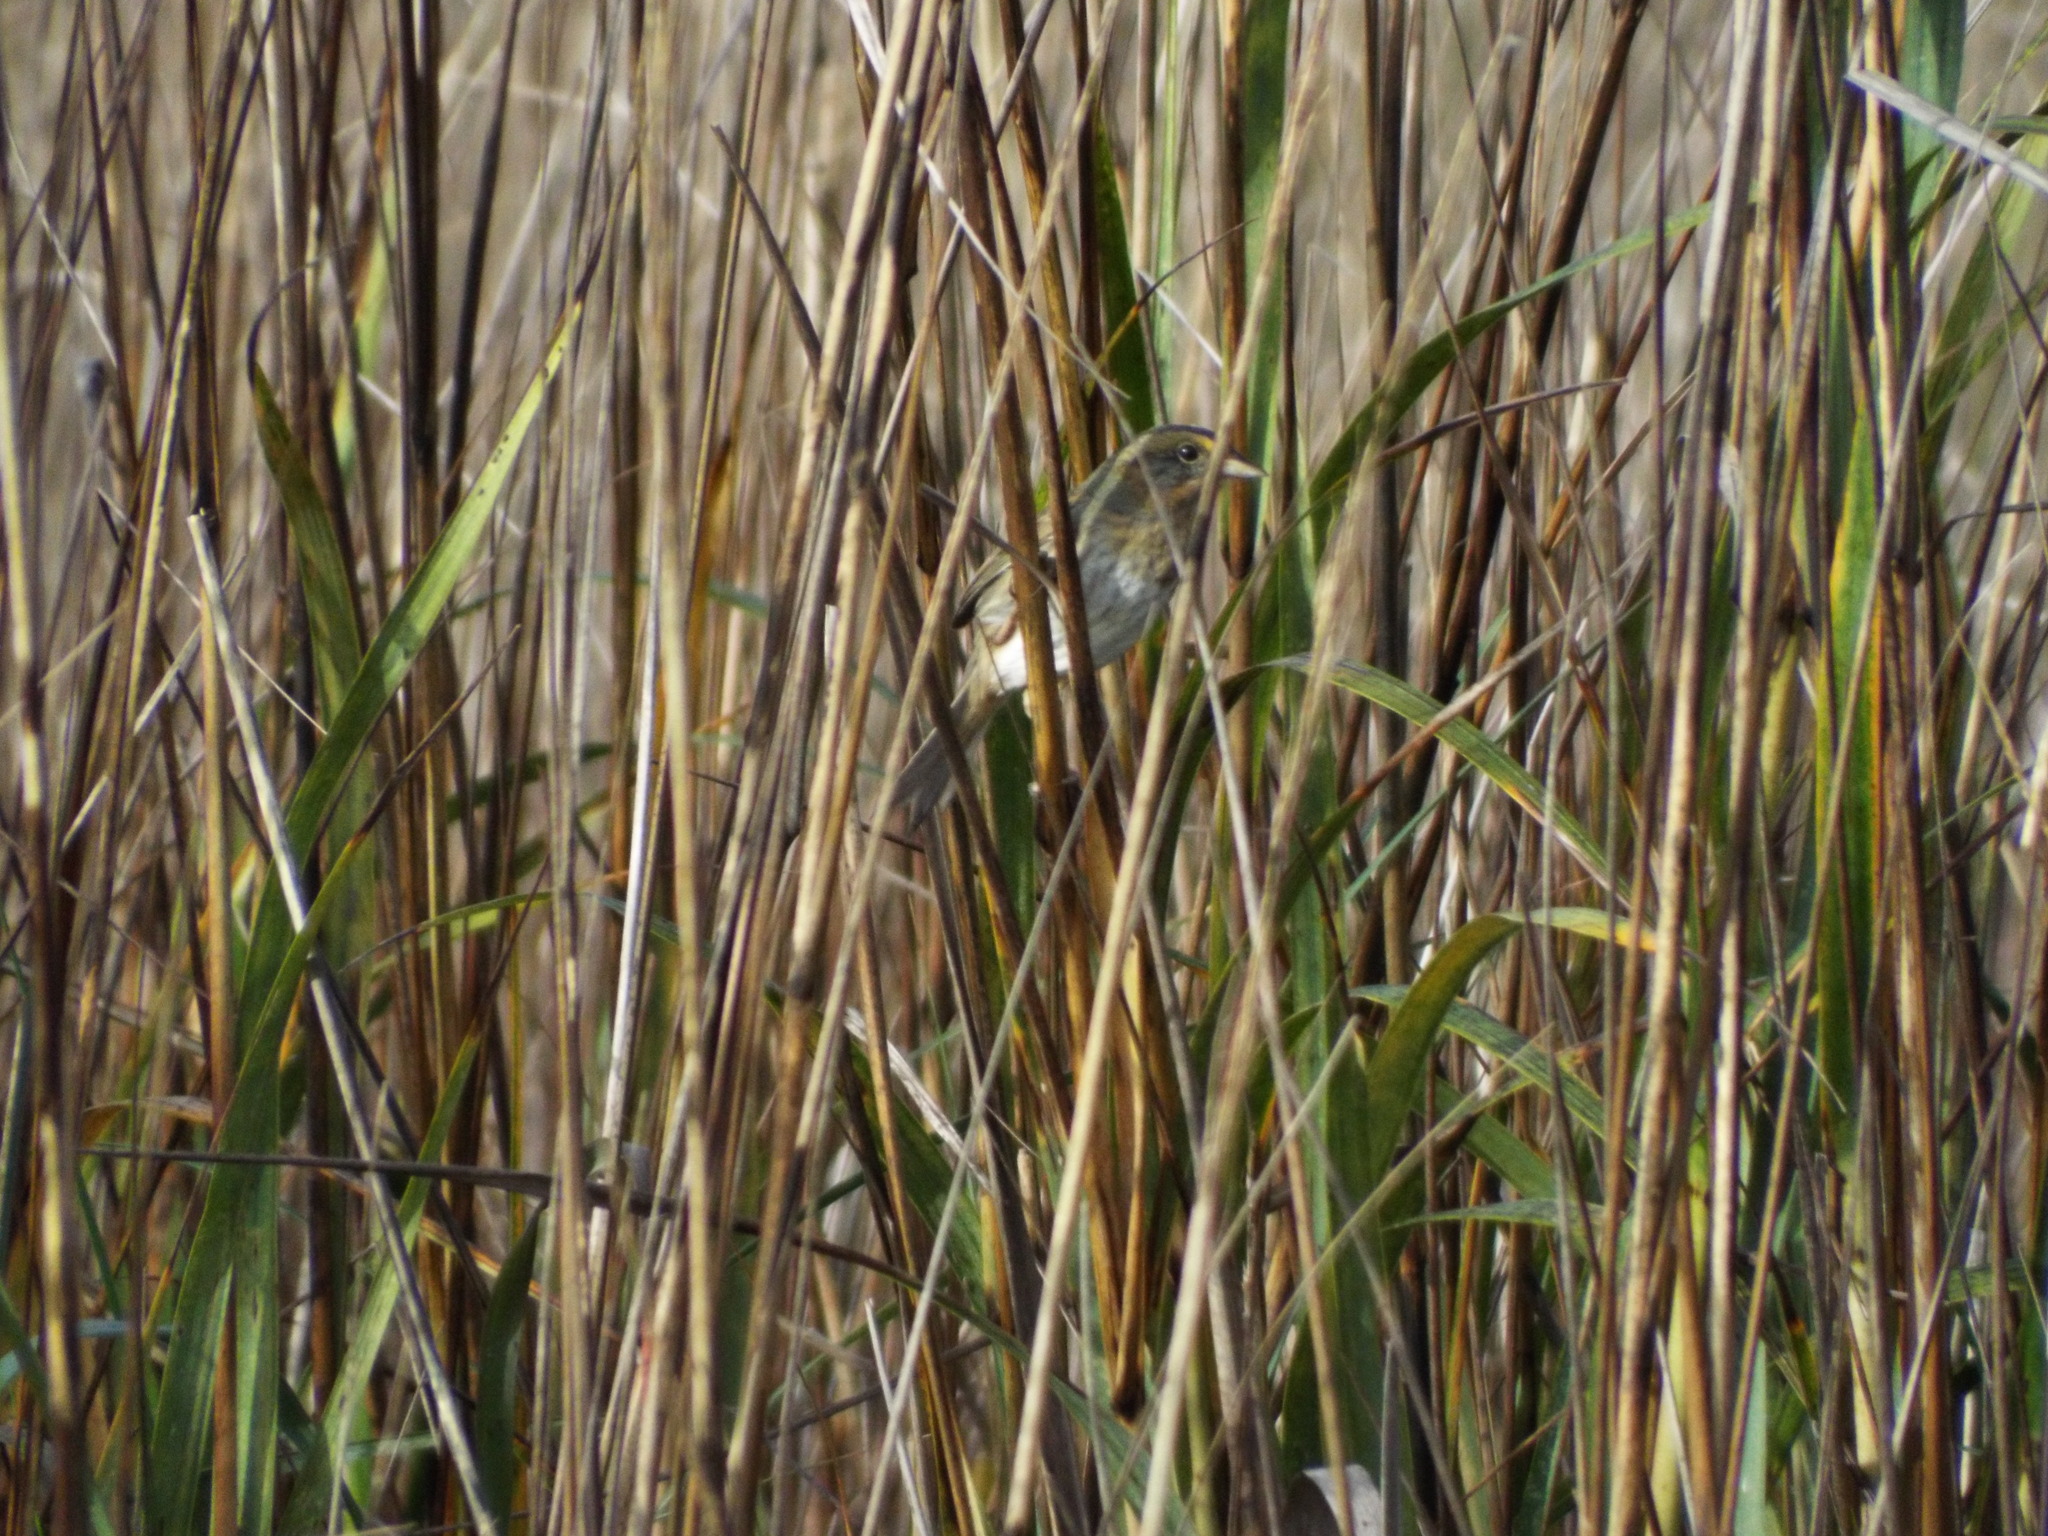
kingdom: Animalia
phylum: Chordata
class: Aves
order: Passeriformes
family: Passerellidae
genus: Ammospiza
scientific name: Ammospiza caudacuta
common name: Saltmarsh sparrow
